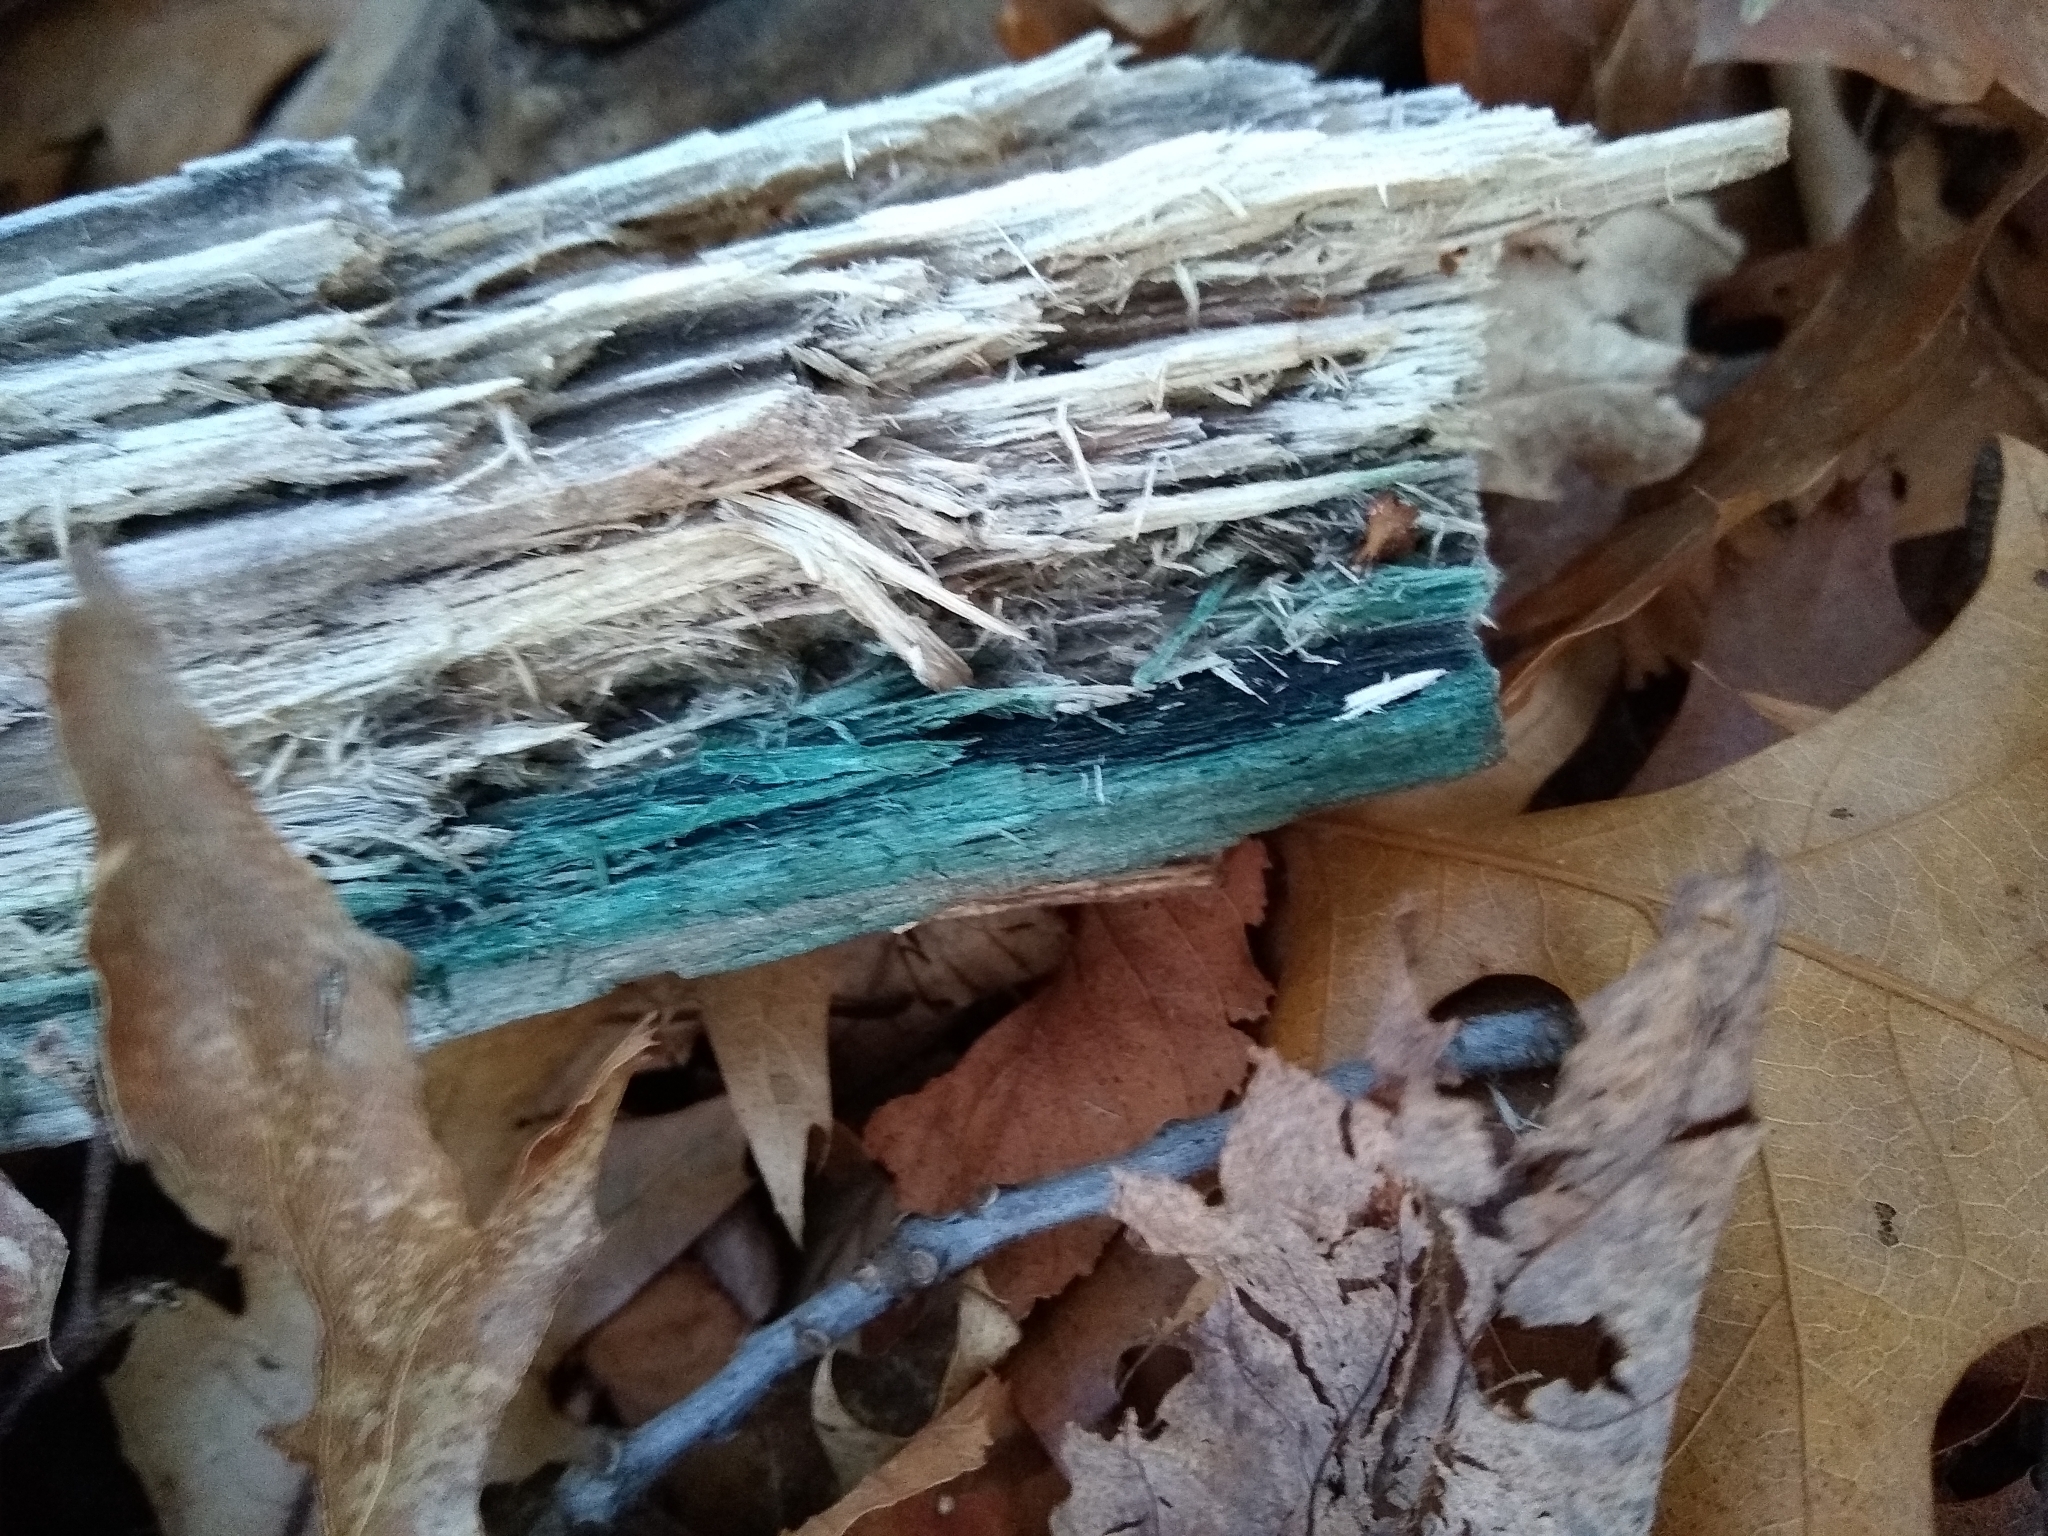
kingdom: Fungi
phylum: Ascomycota
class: Leotiomycetes
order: Helotiales
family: Chlorociboriaceae
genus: Chlorociboria
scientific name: Chlorociboria
